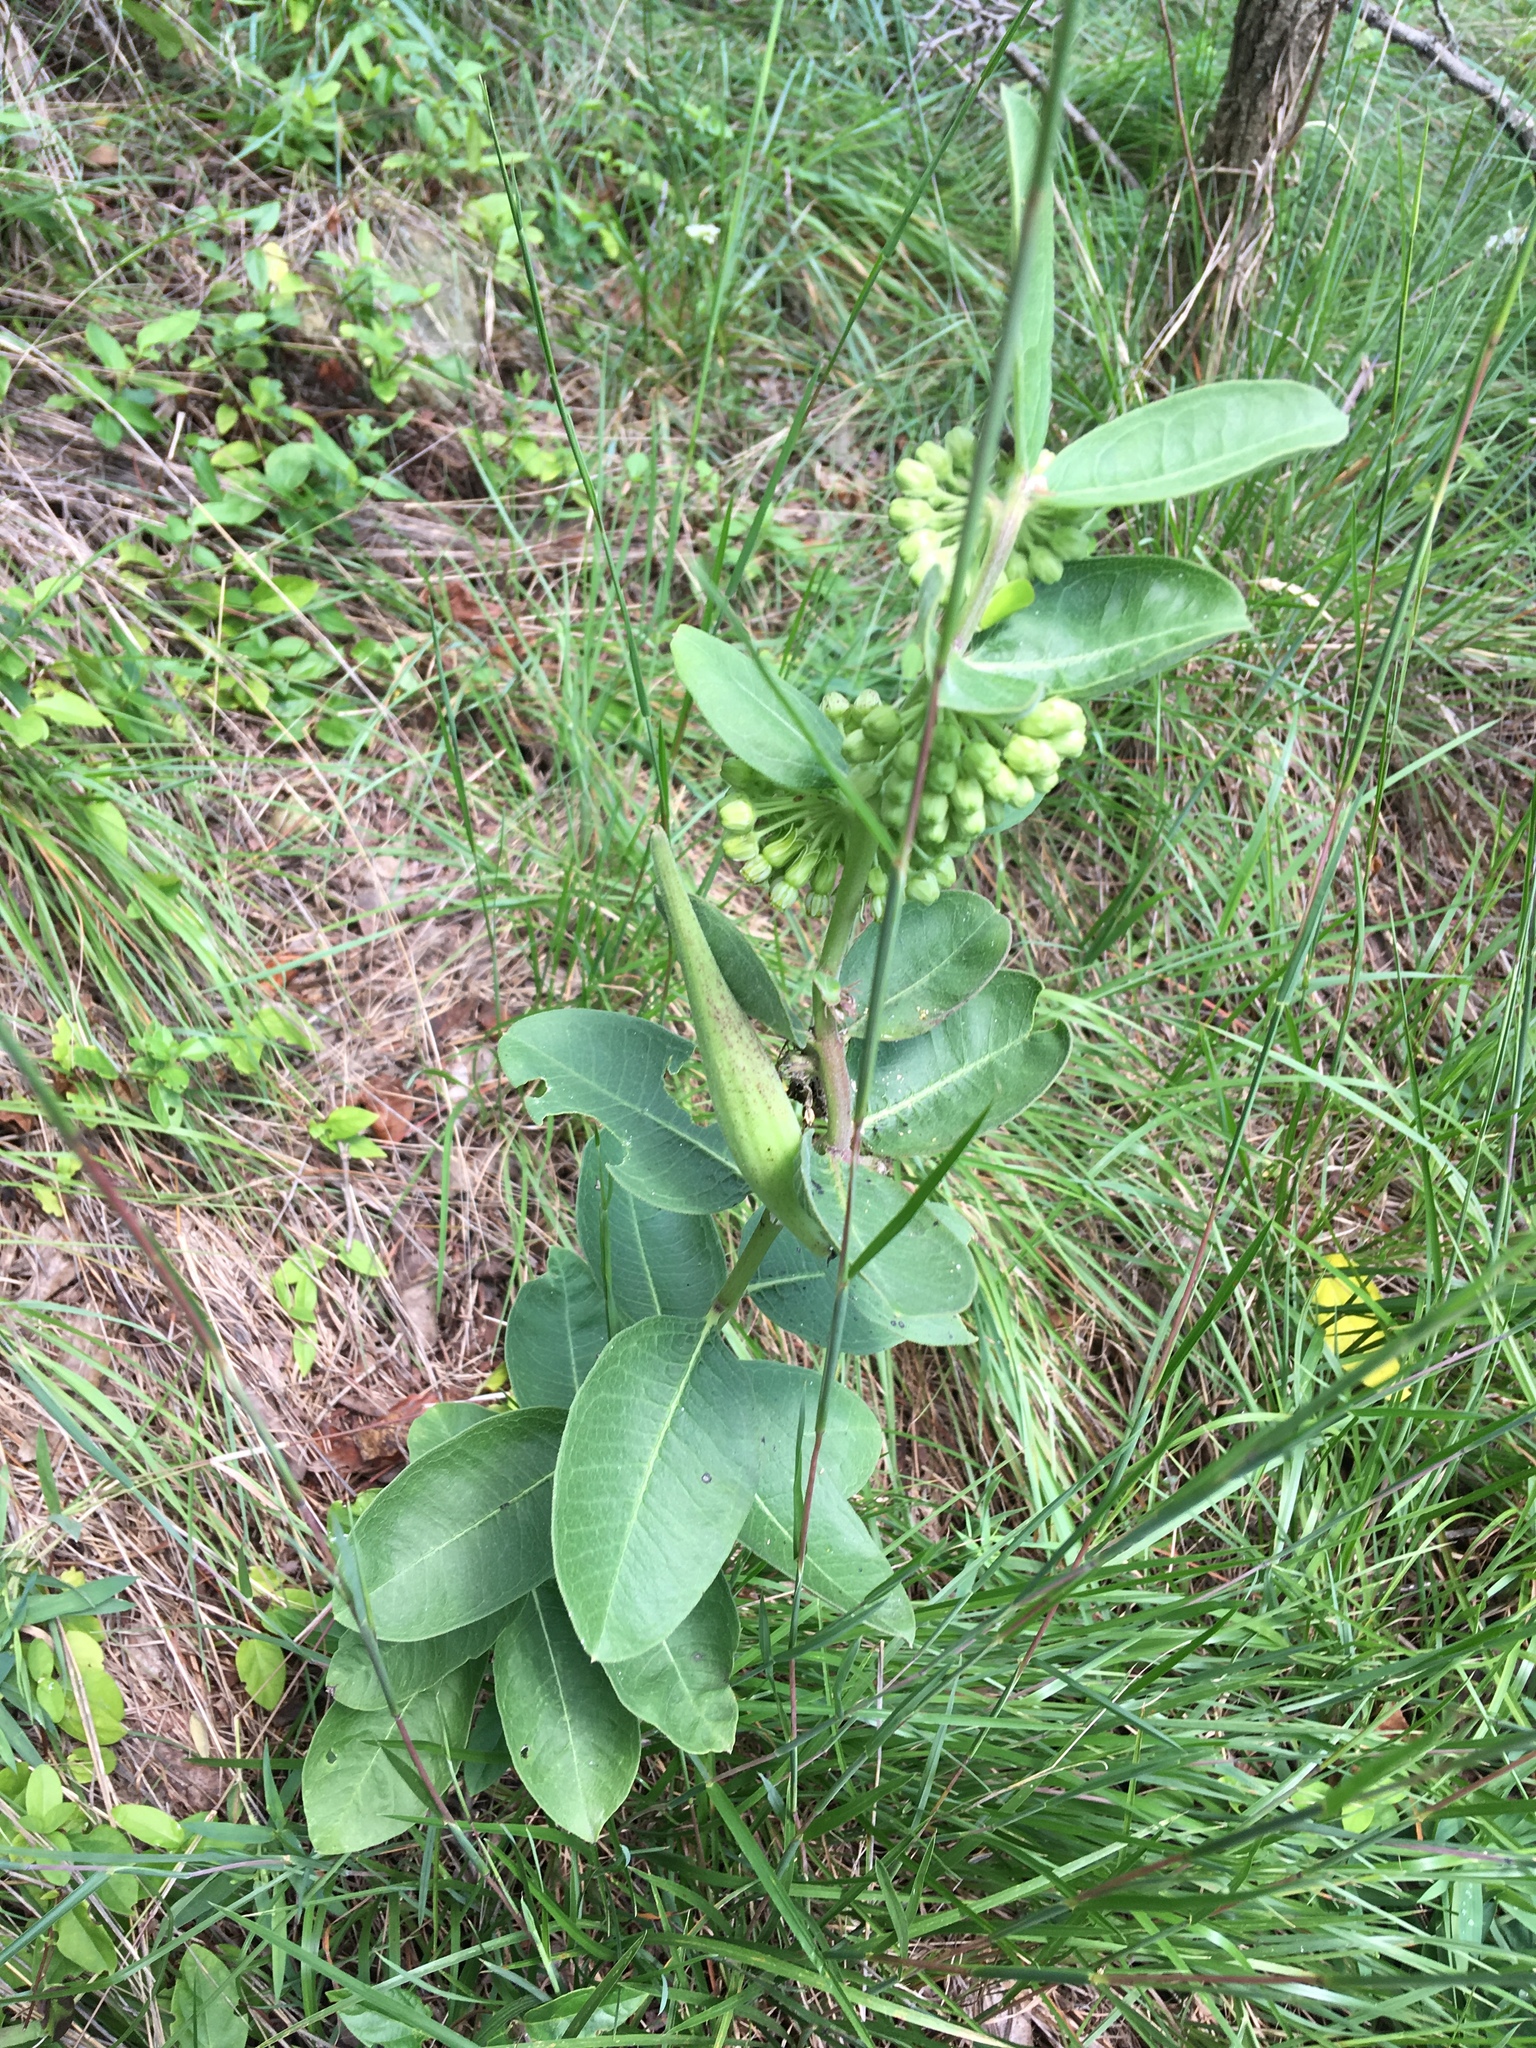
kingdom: Plantae
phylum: Tracheophyta
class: Magnoliopsida
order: Gentianales
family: Apocynaceae
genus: Asclepias
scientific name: Asclepias viridiflora
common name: Green comet milkweed
